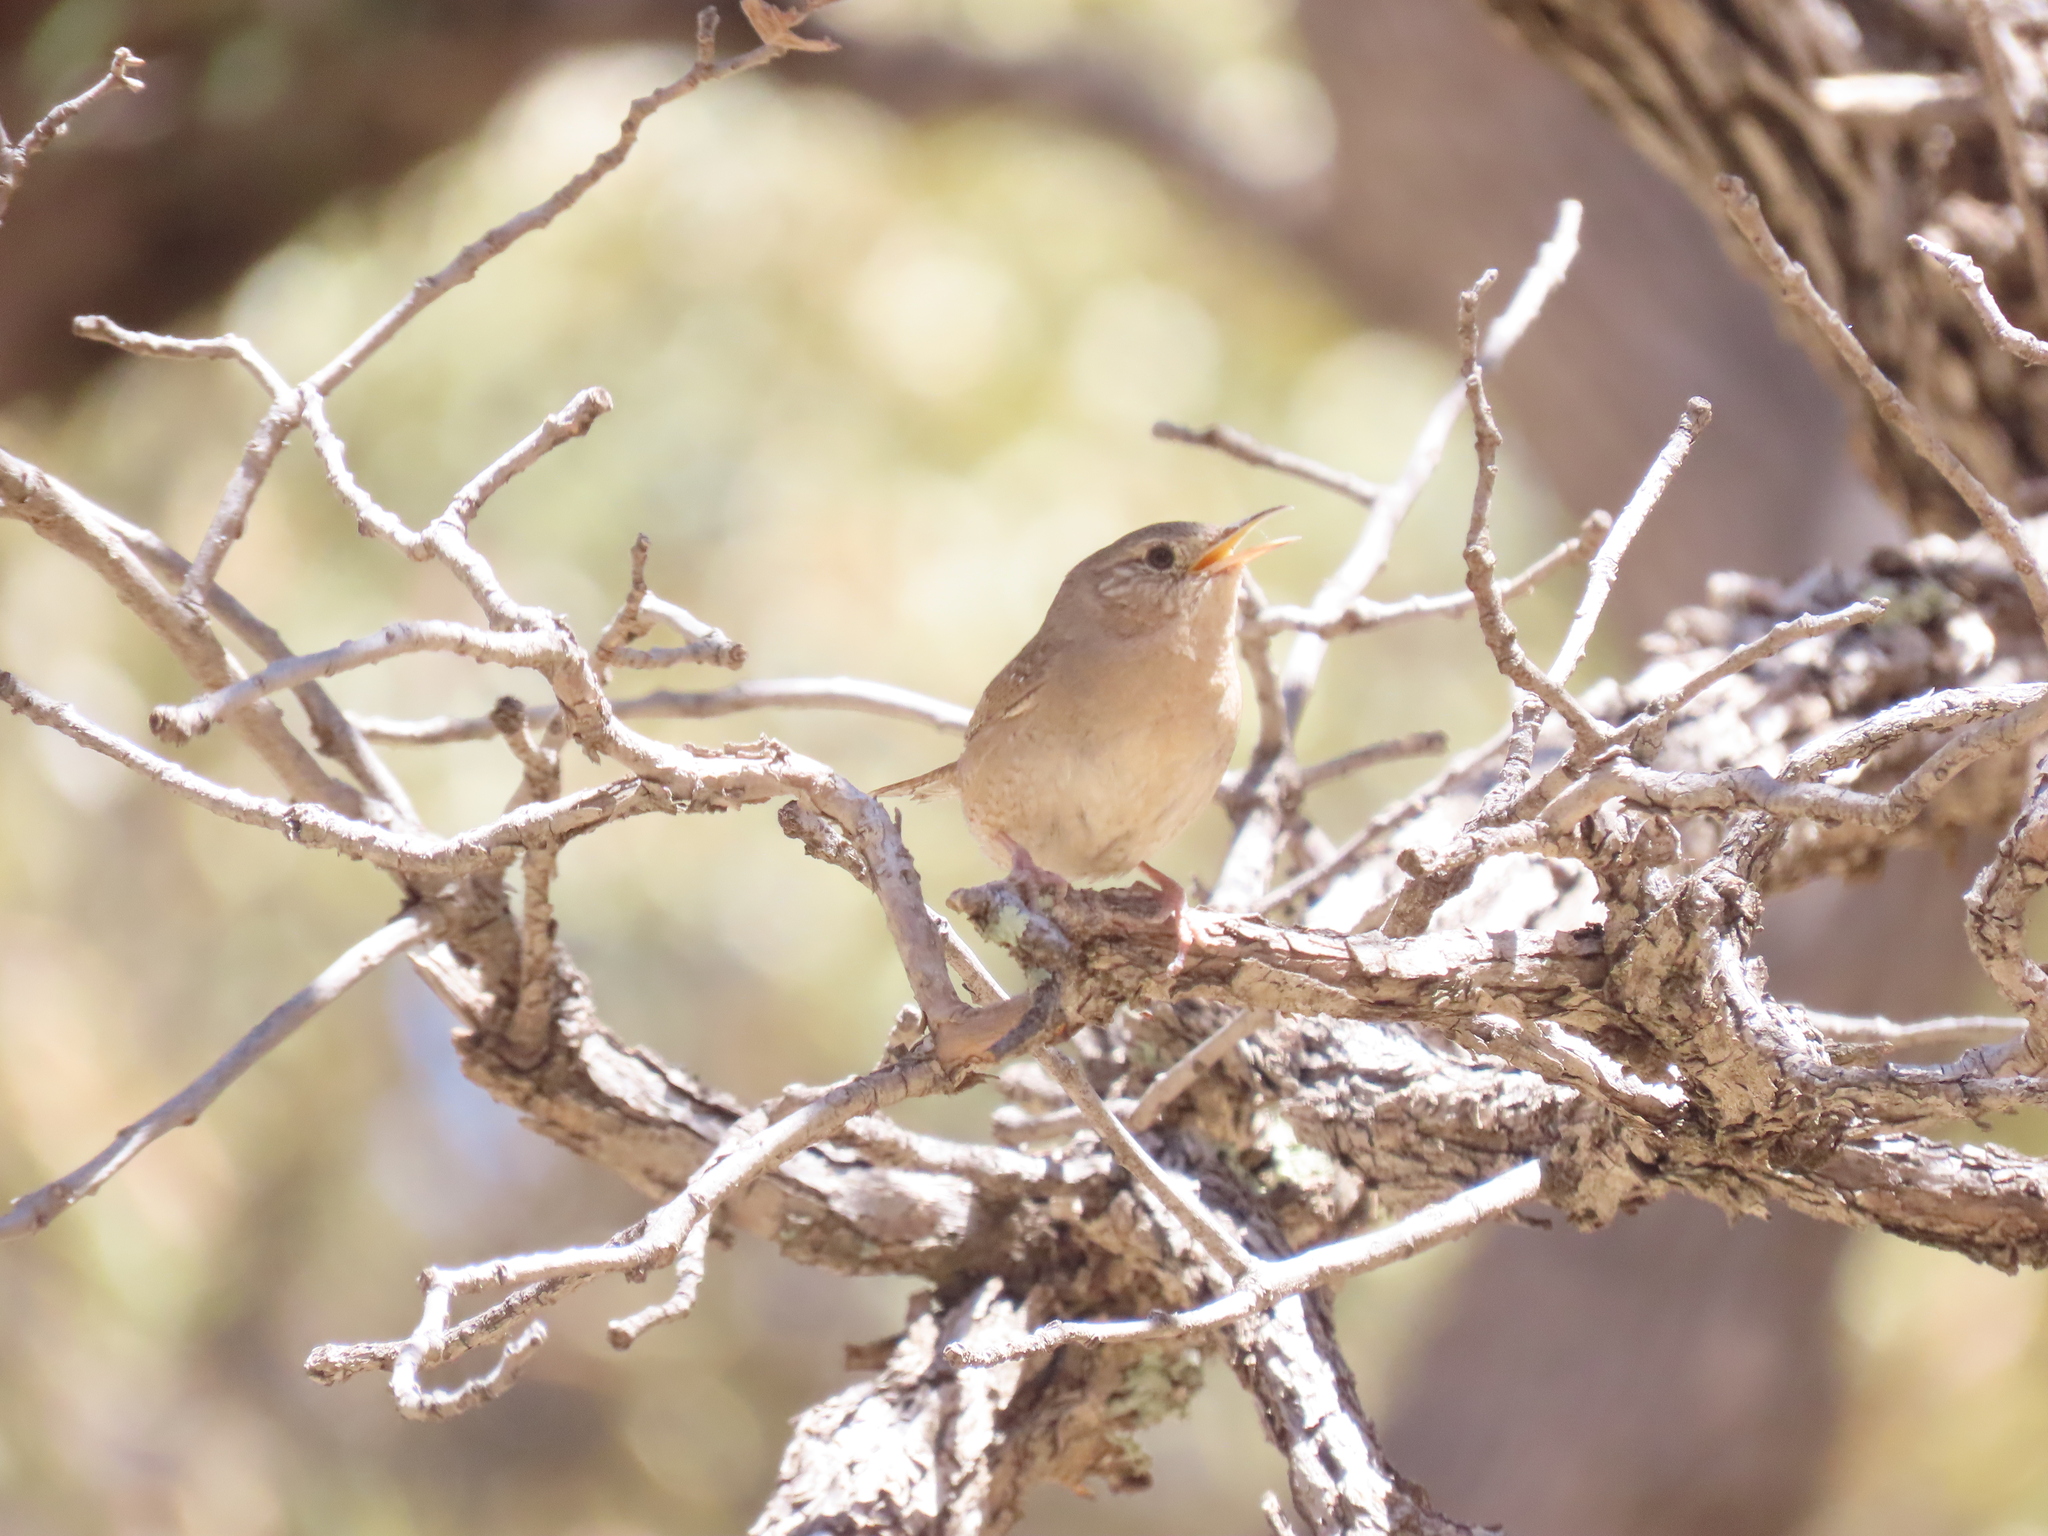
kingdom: Animalia
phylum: Chordata
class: Aves
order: Passeriformes
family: Troglodytidae
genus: Troglodytes
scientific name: Troglodytes aedon
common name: House wren
